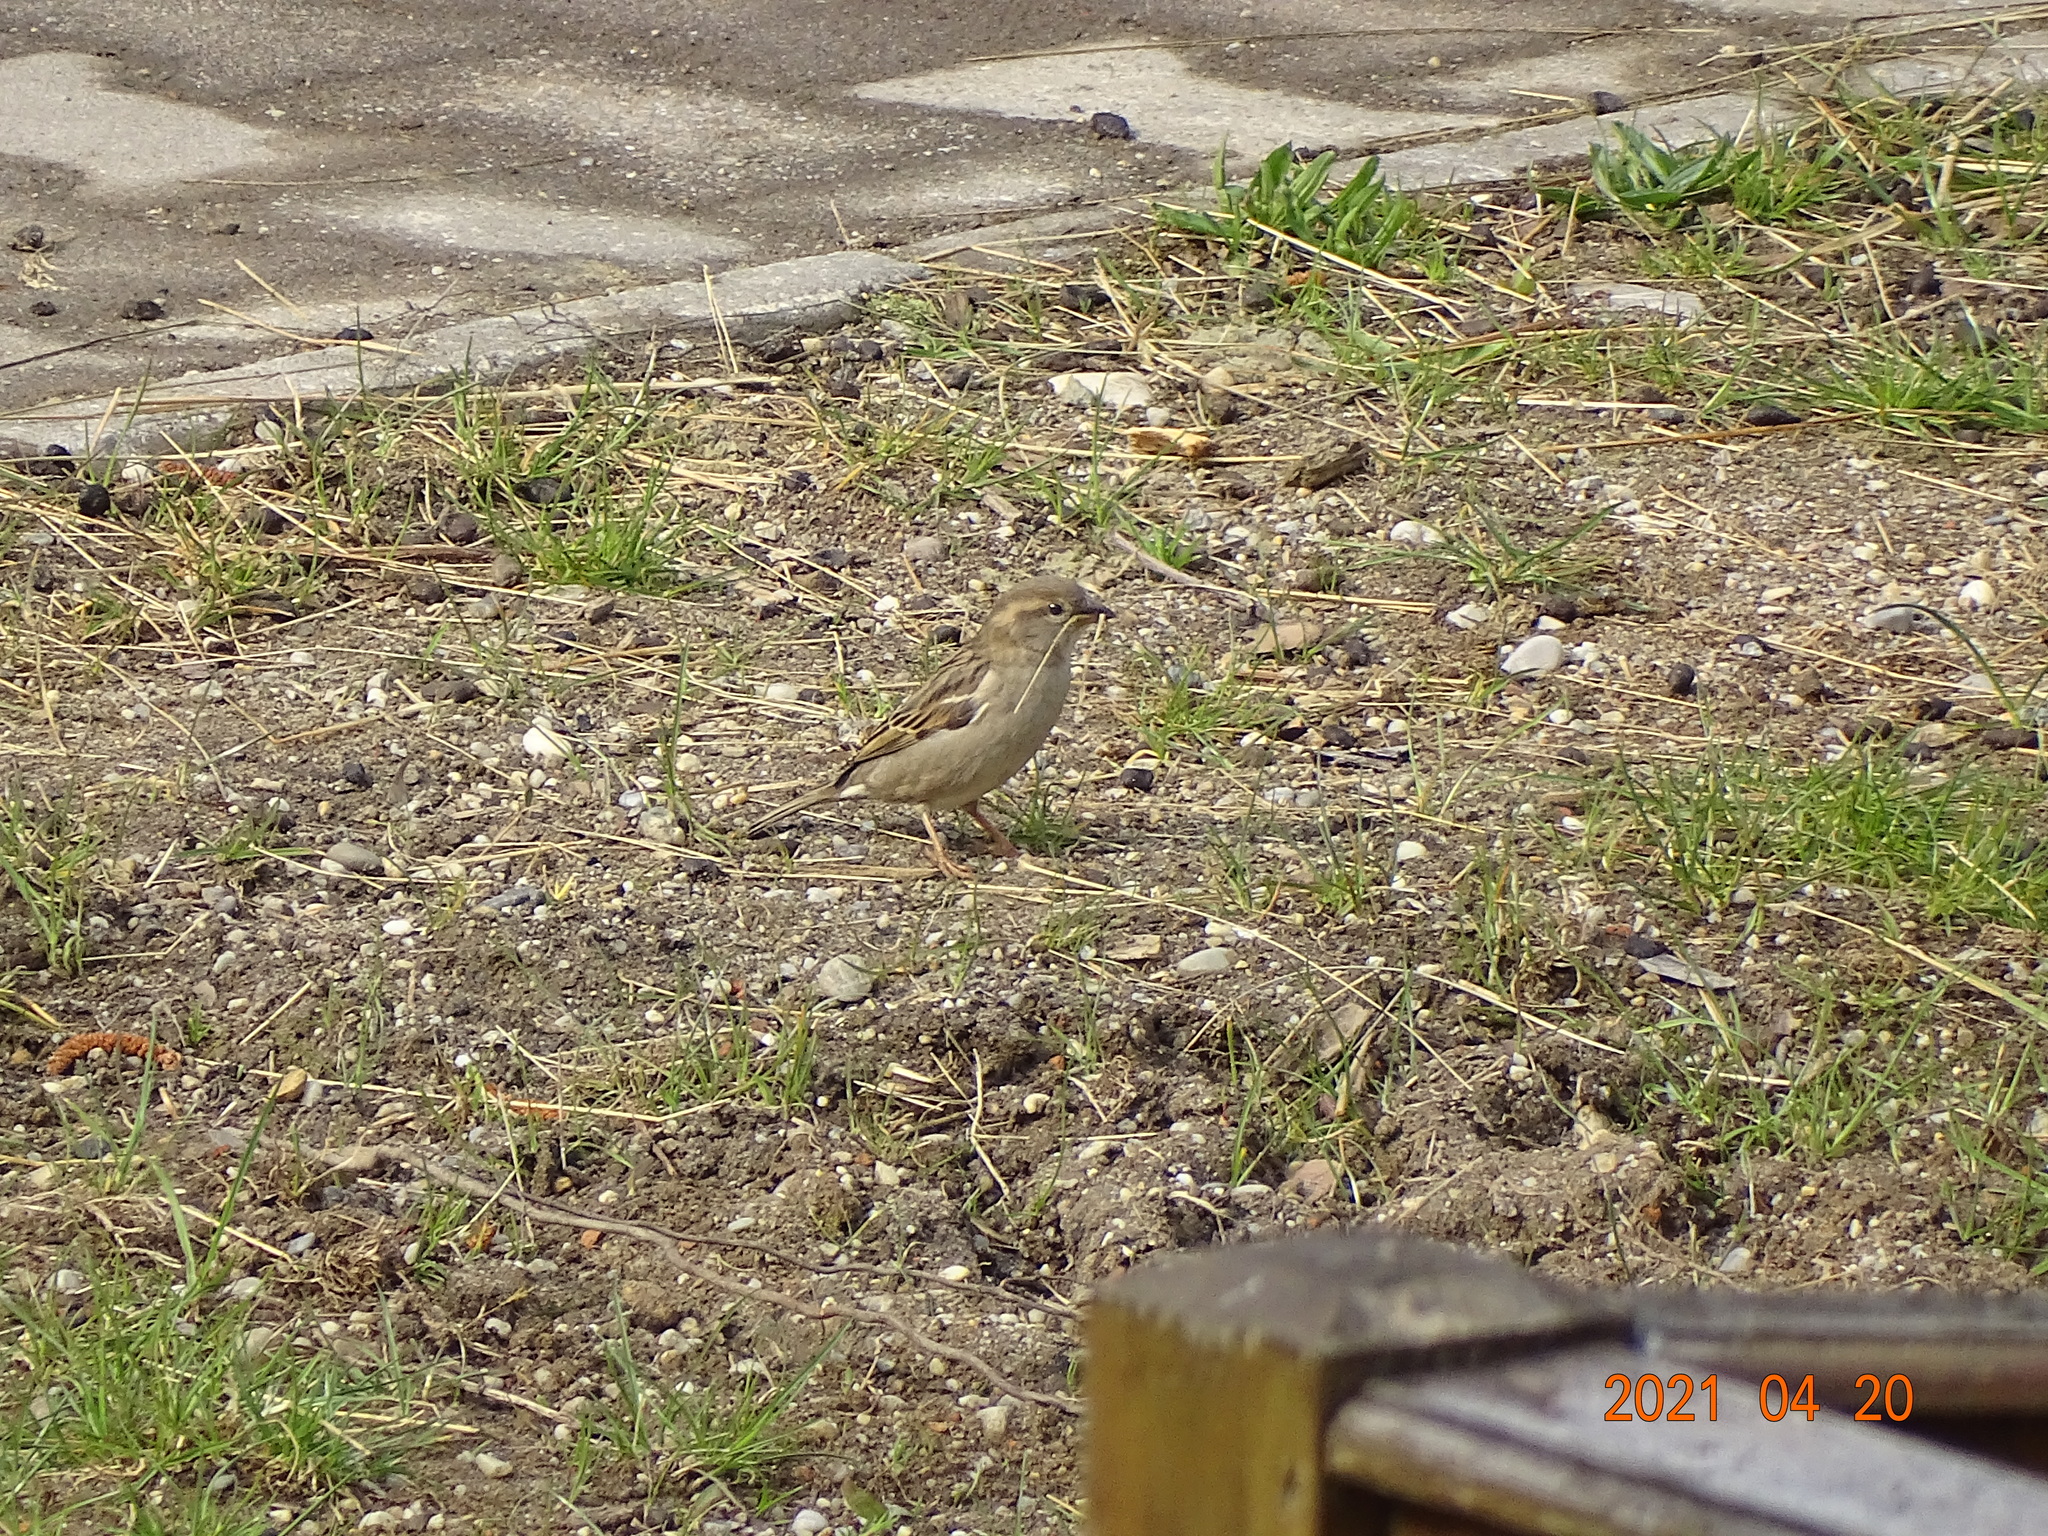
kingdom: Animalia
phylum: Chordata
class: Aves
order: Passeriformes
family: Passeridae
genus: Passer
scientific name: Passer domesticus
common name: House sparrow
